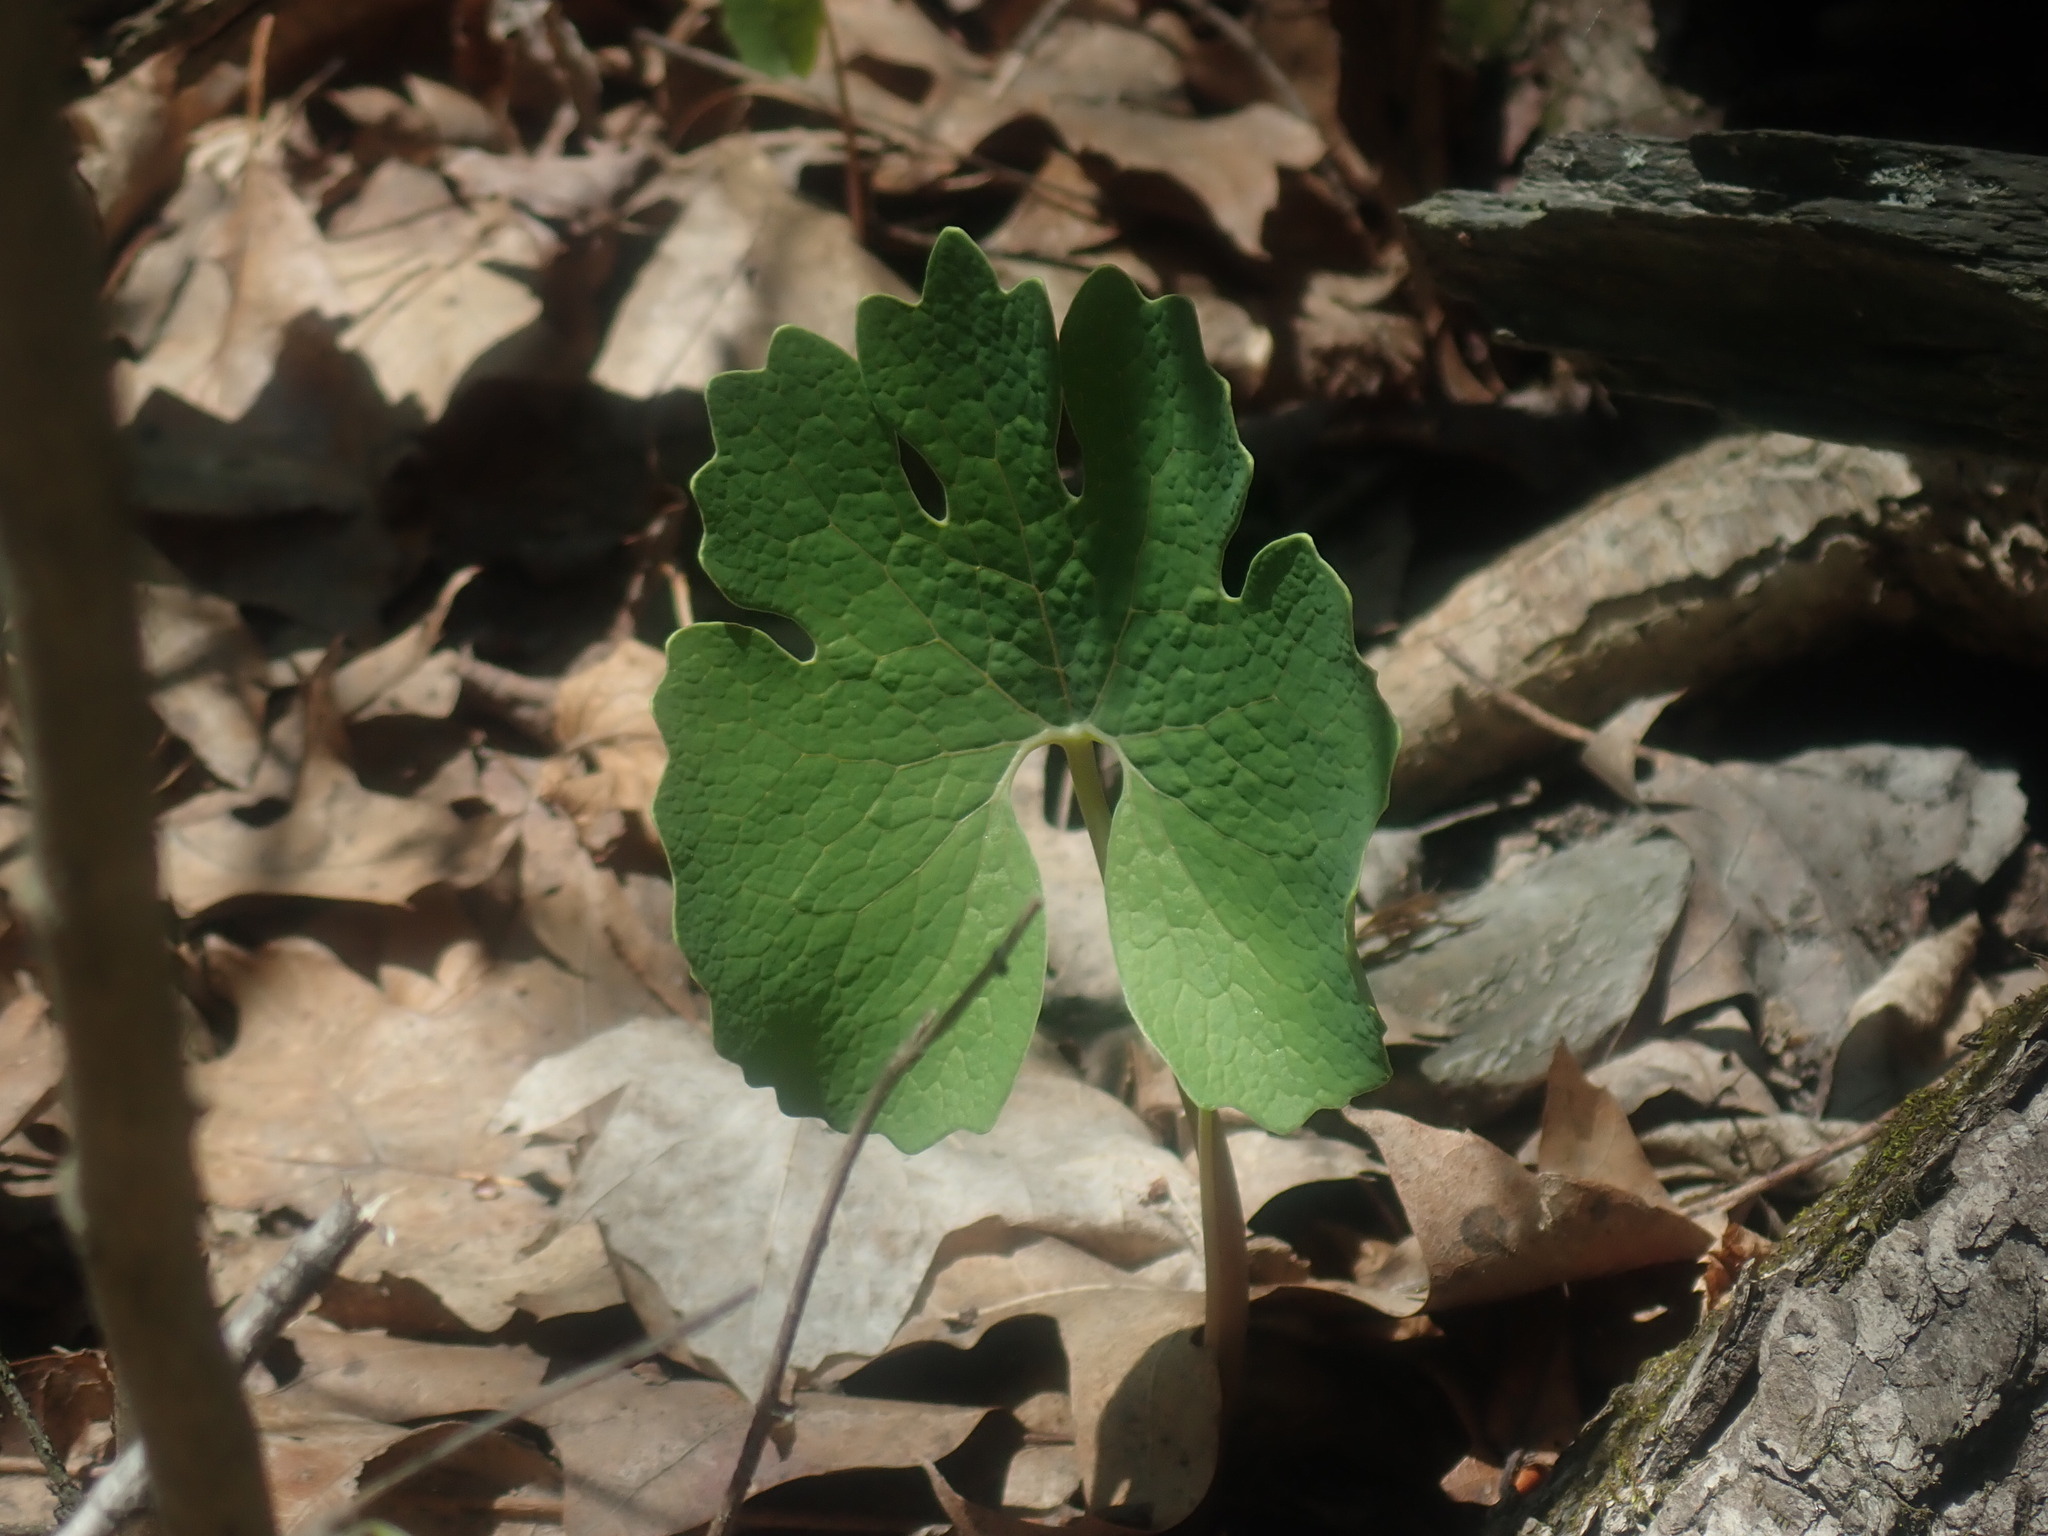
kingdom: Plantae
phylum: Tracheophyta
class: Magnoliopsida
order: Ranunculales
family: Papaveraceae
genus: Sanguinaria
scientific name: Sanguinaria canadensis
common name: Bloodroot
